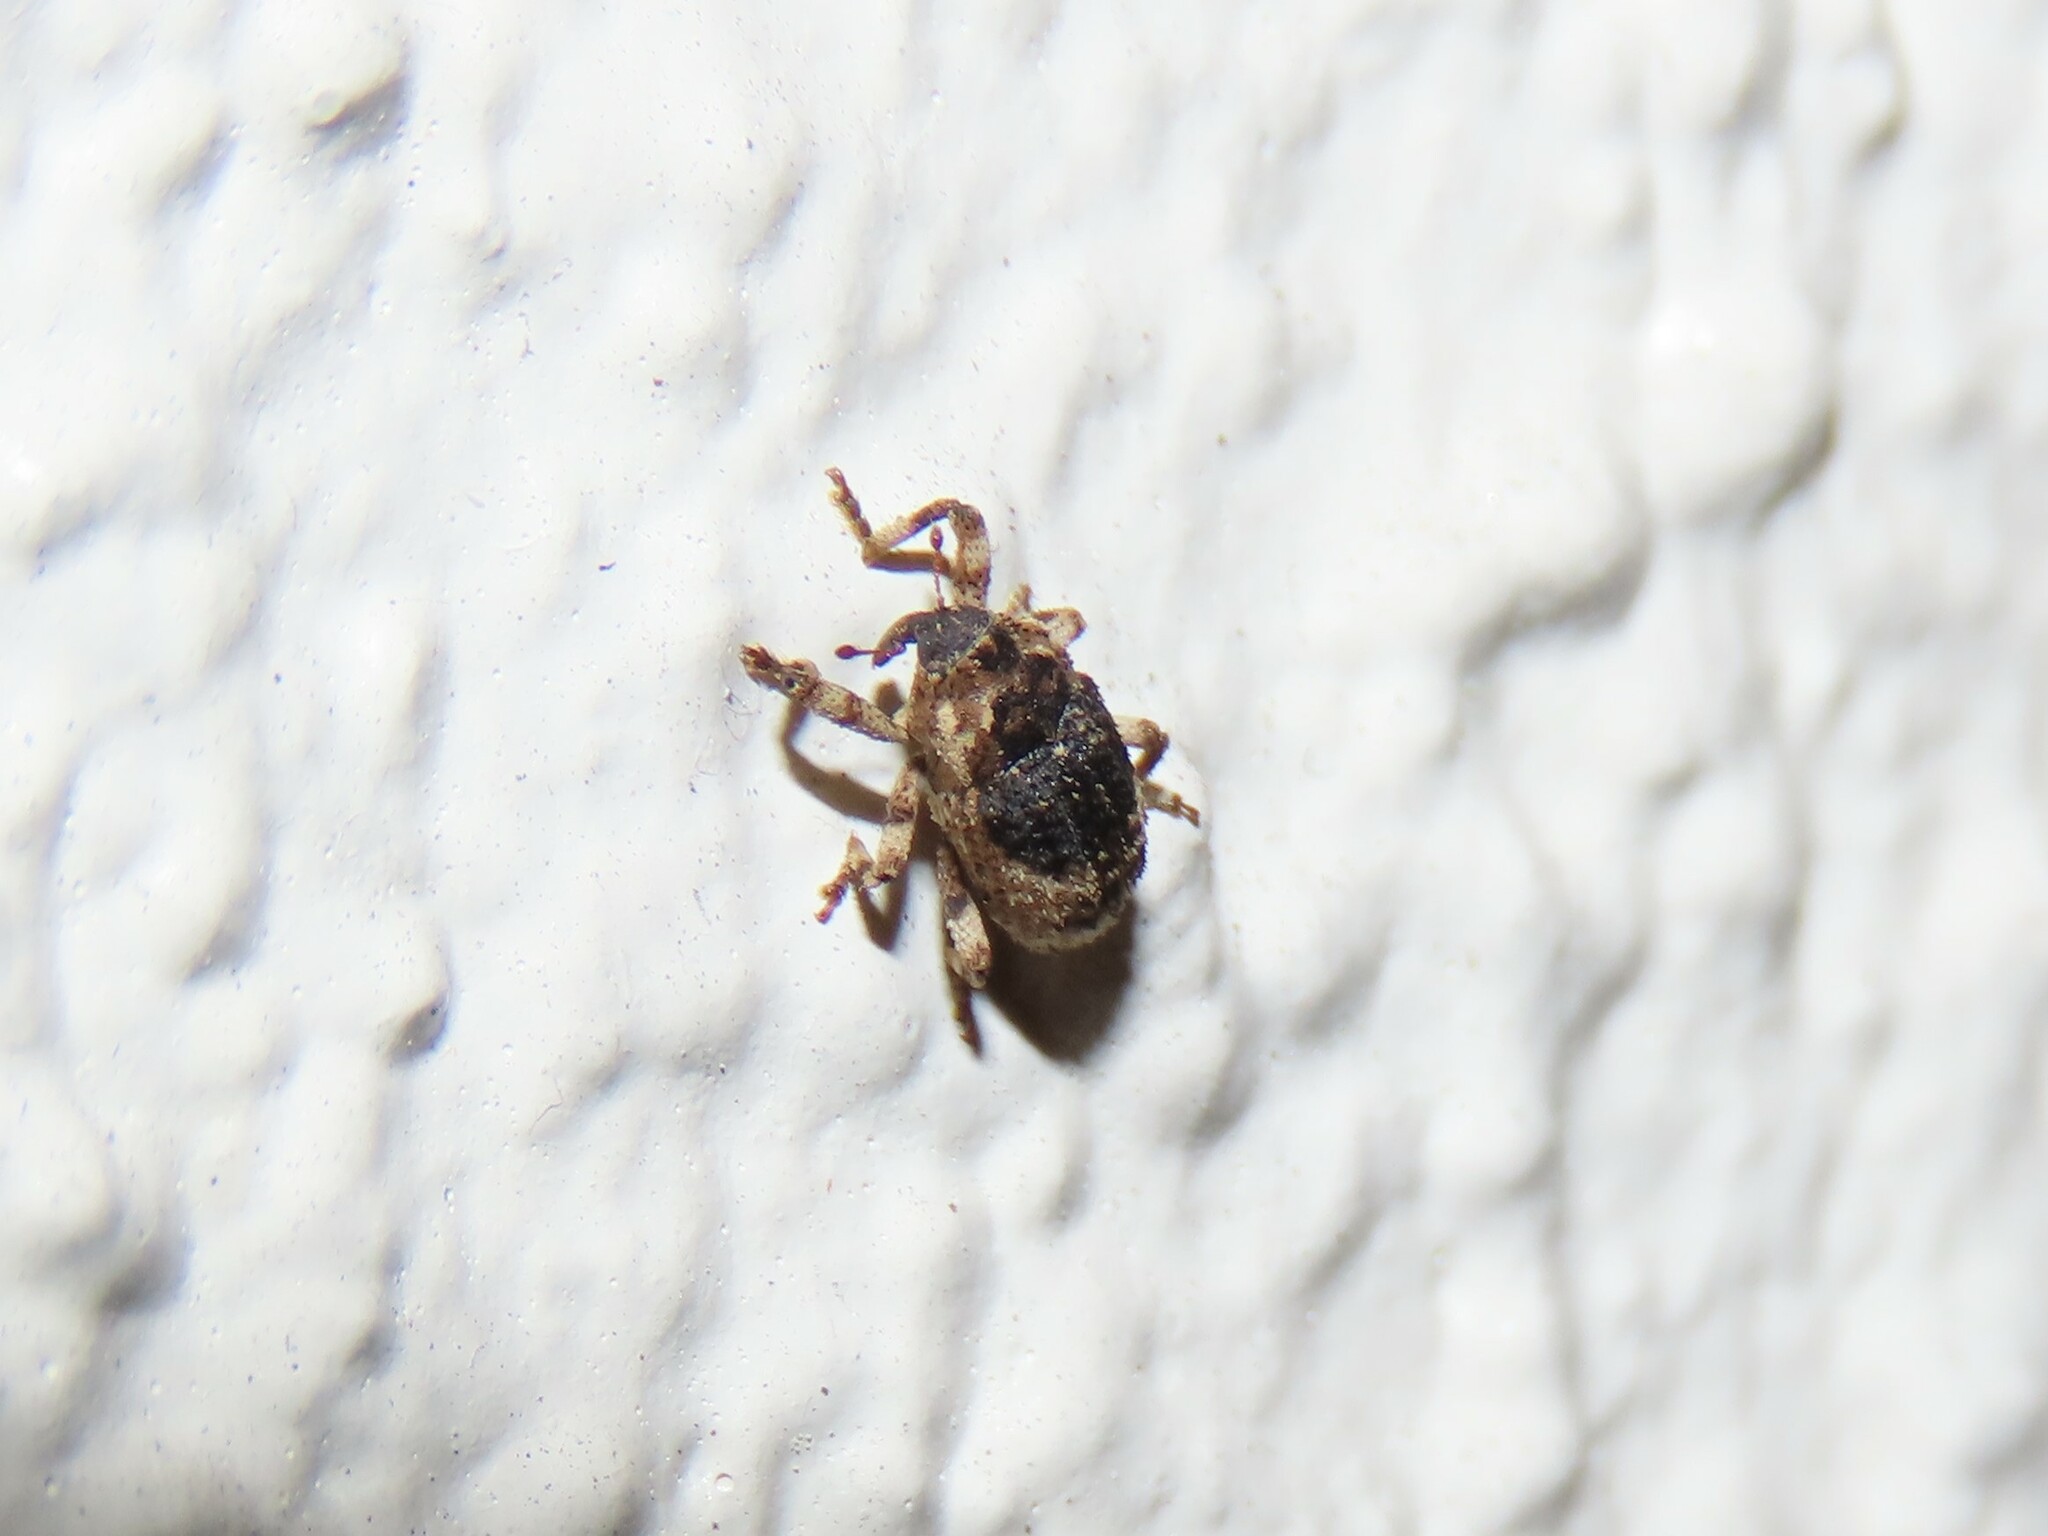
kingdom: Animalia
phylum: Arthropoda
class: Insecta
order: Coleoptera
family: Curculionidae
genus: Cophes
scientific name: Cophes fallax
